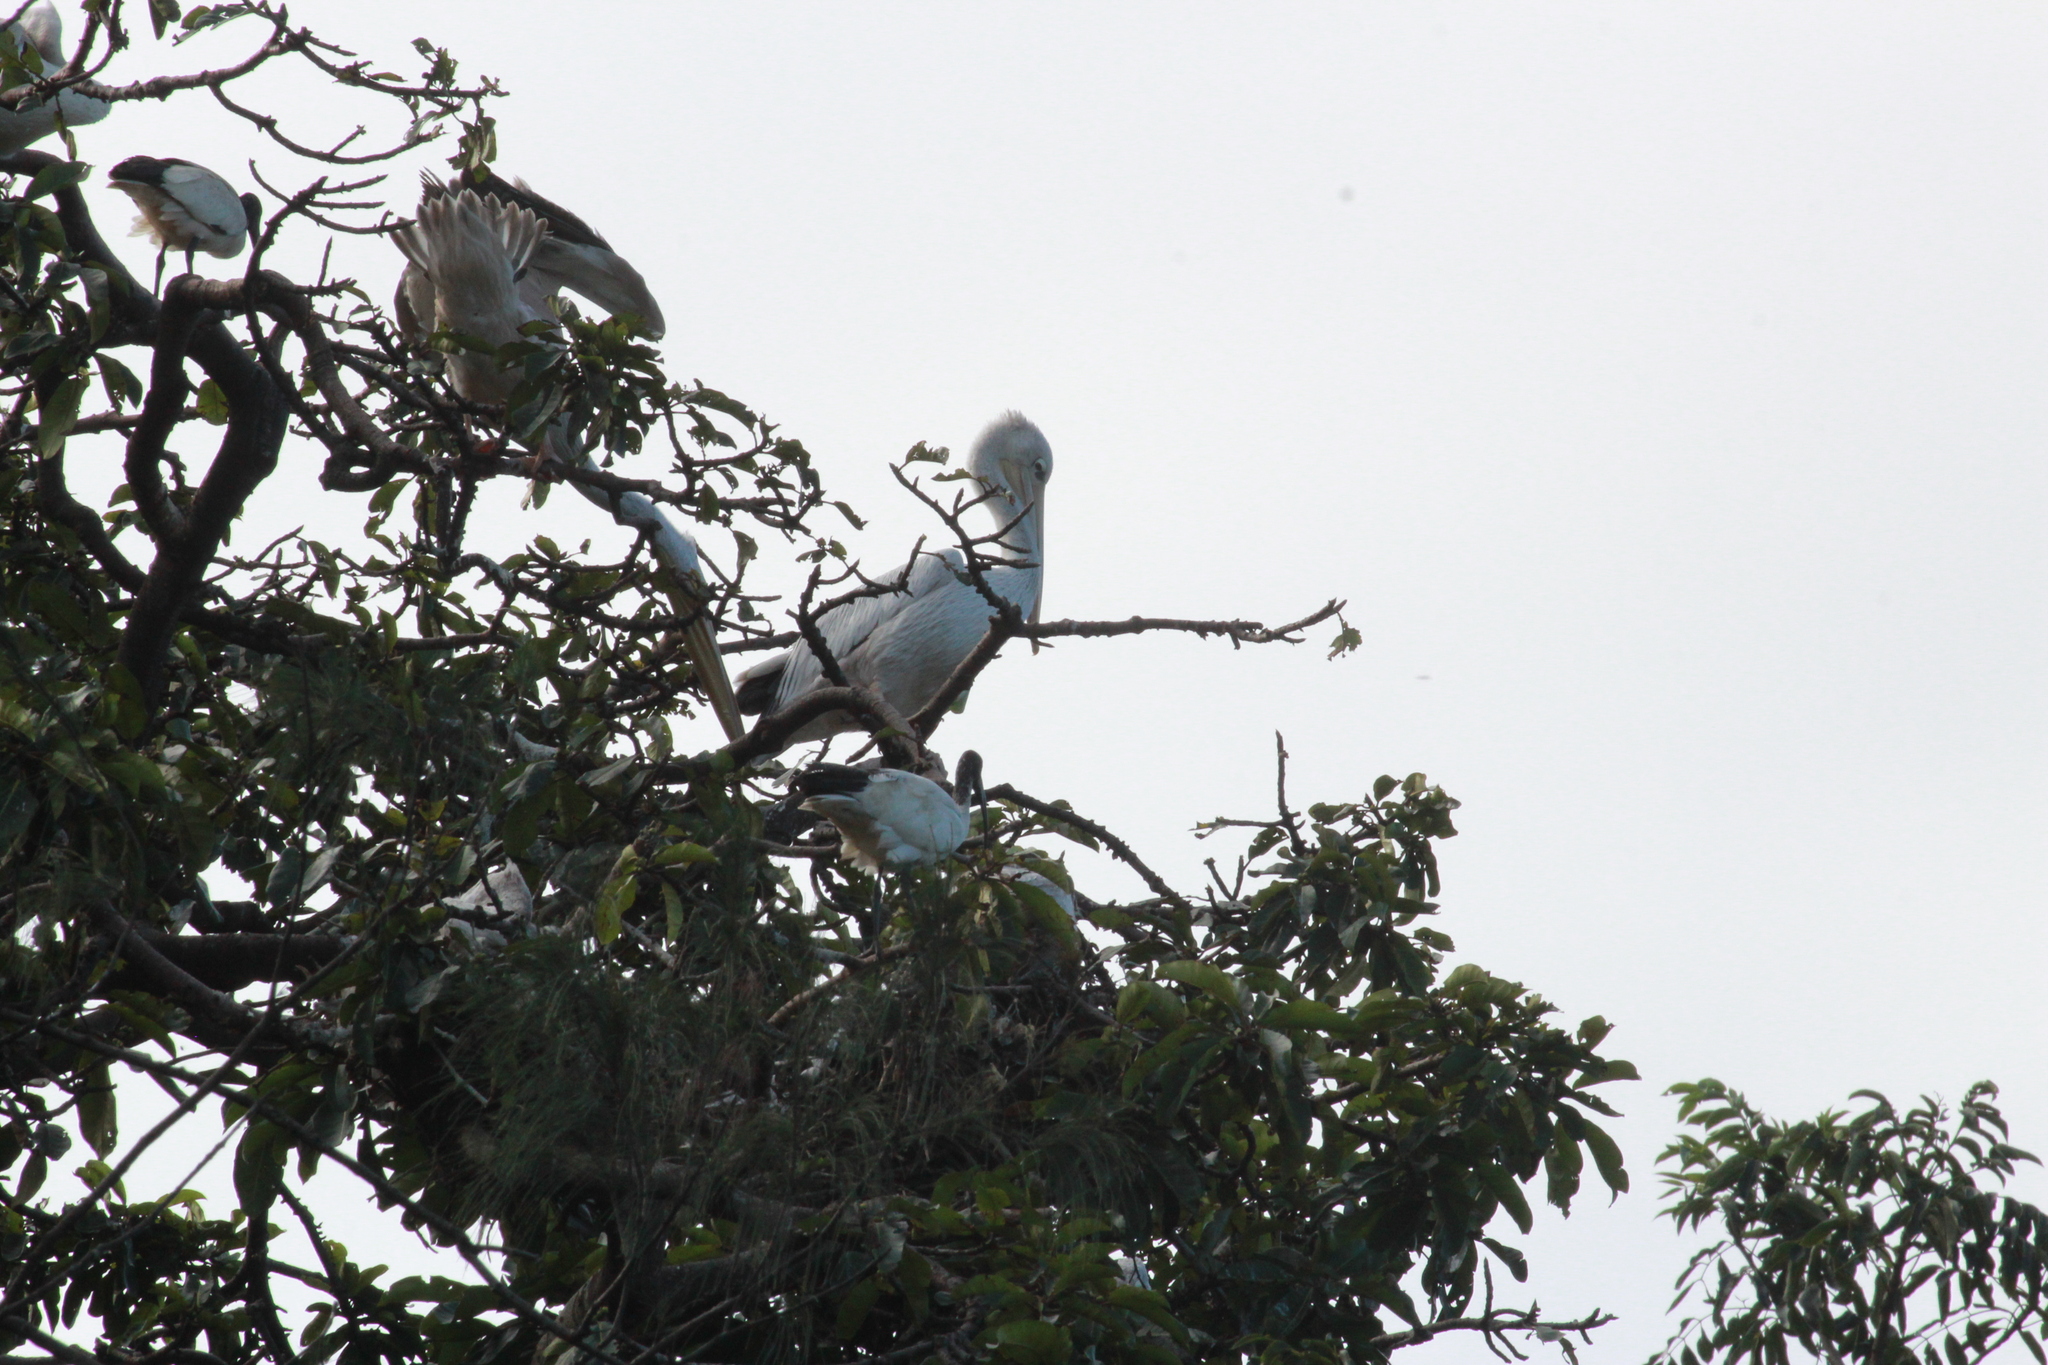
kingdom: Animalia
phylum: Chordata
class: Aves
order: Pelecaniformes
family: Pelecanidae
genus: Pelecanus
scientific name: Pelecanus rufescens
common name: Pink-backed pelican
